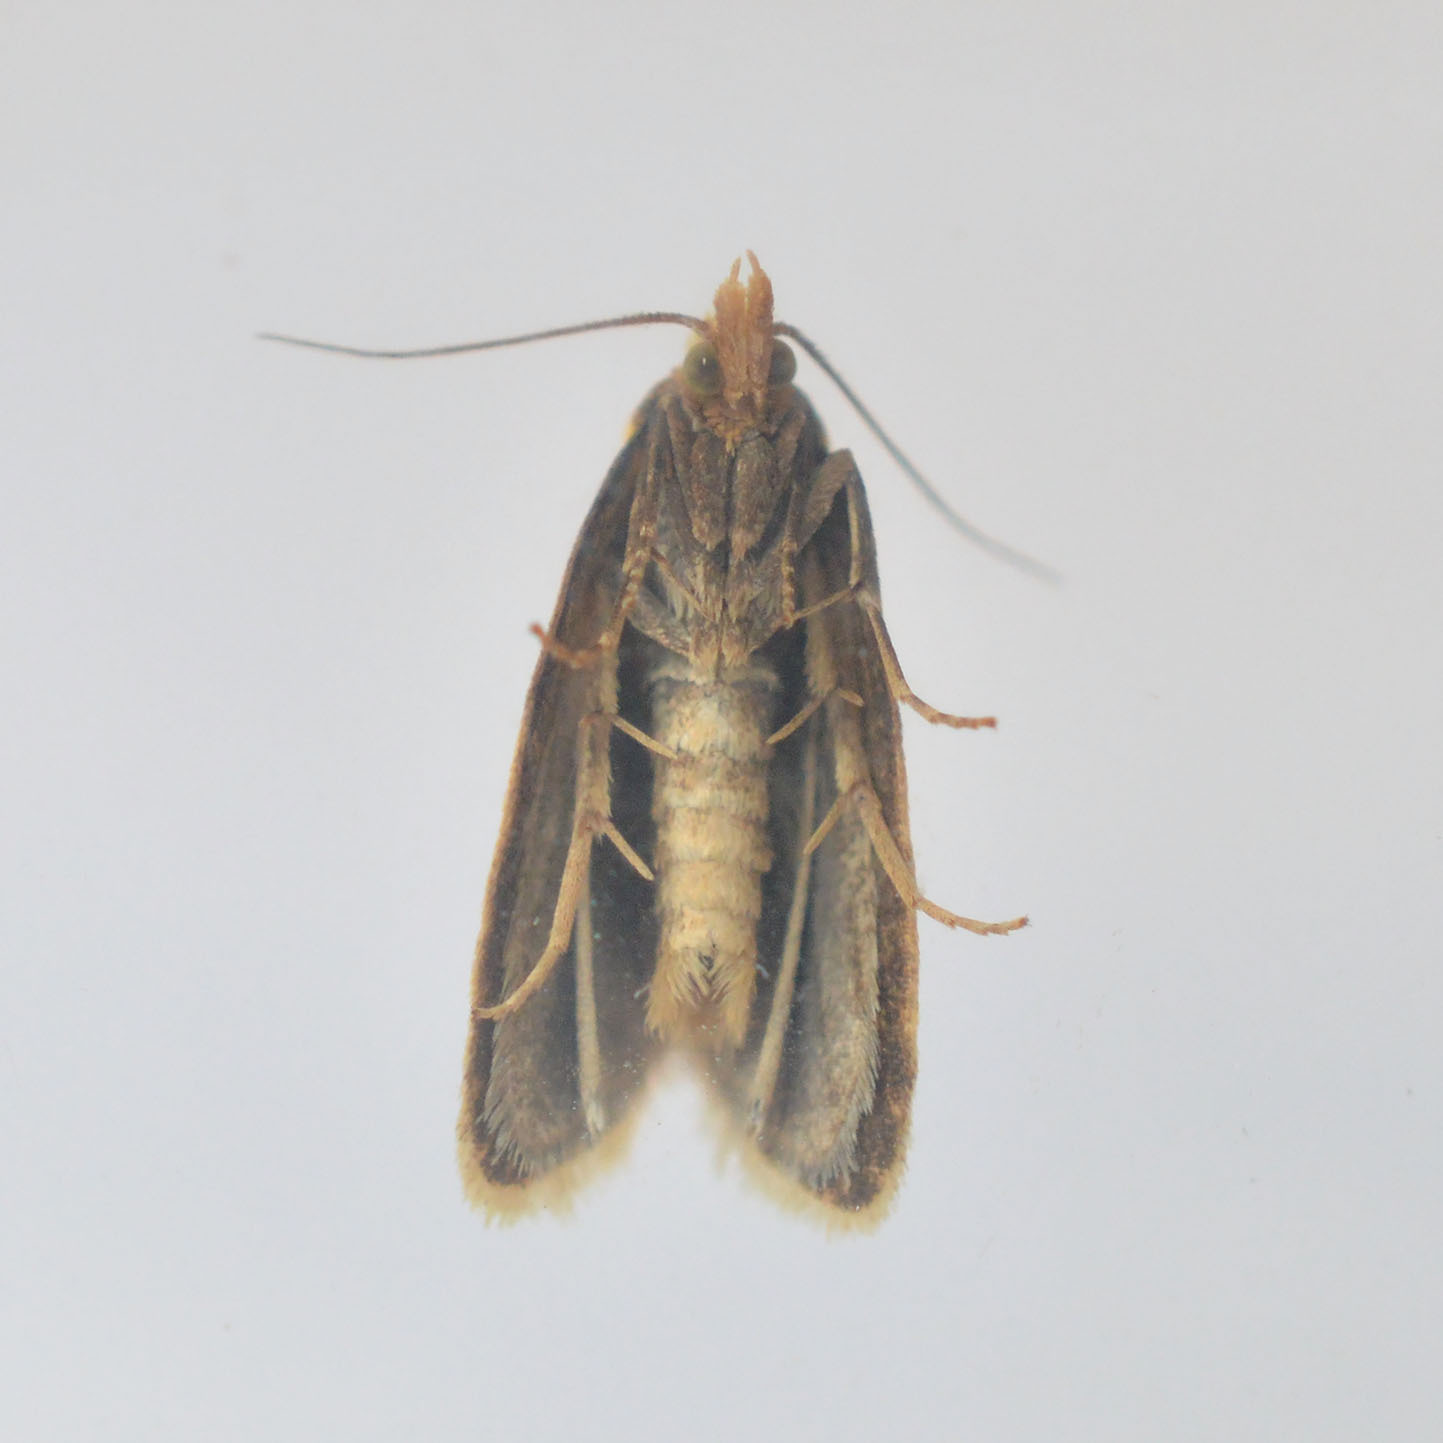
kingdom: Animalia
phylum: Arthropoda
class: Insecta
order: Lepidoptera
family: Tortricidae
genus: Agapeta
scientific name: Agapeta hamana
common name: Common yellow conch
